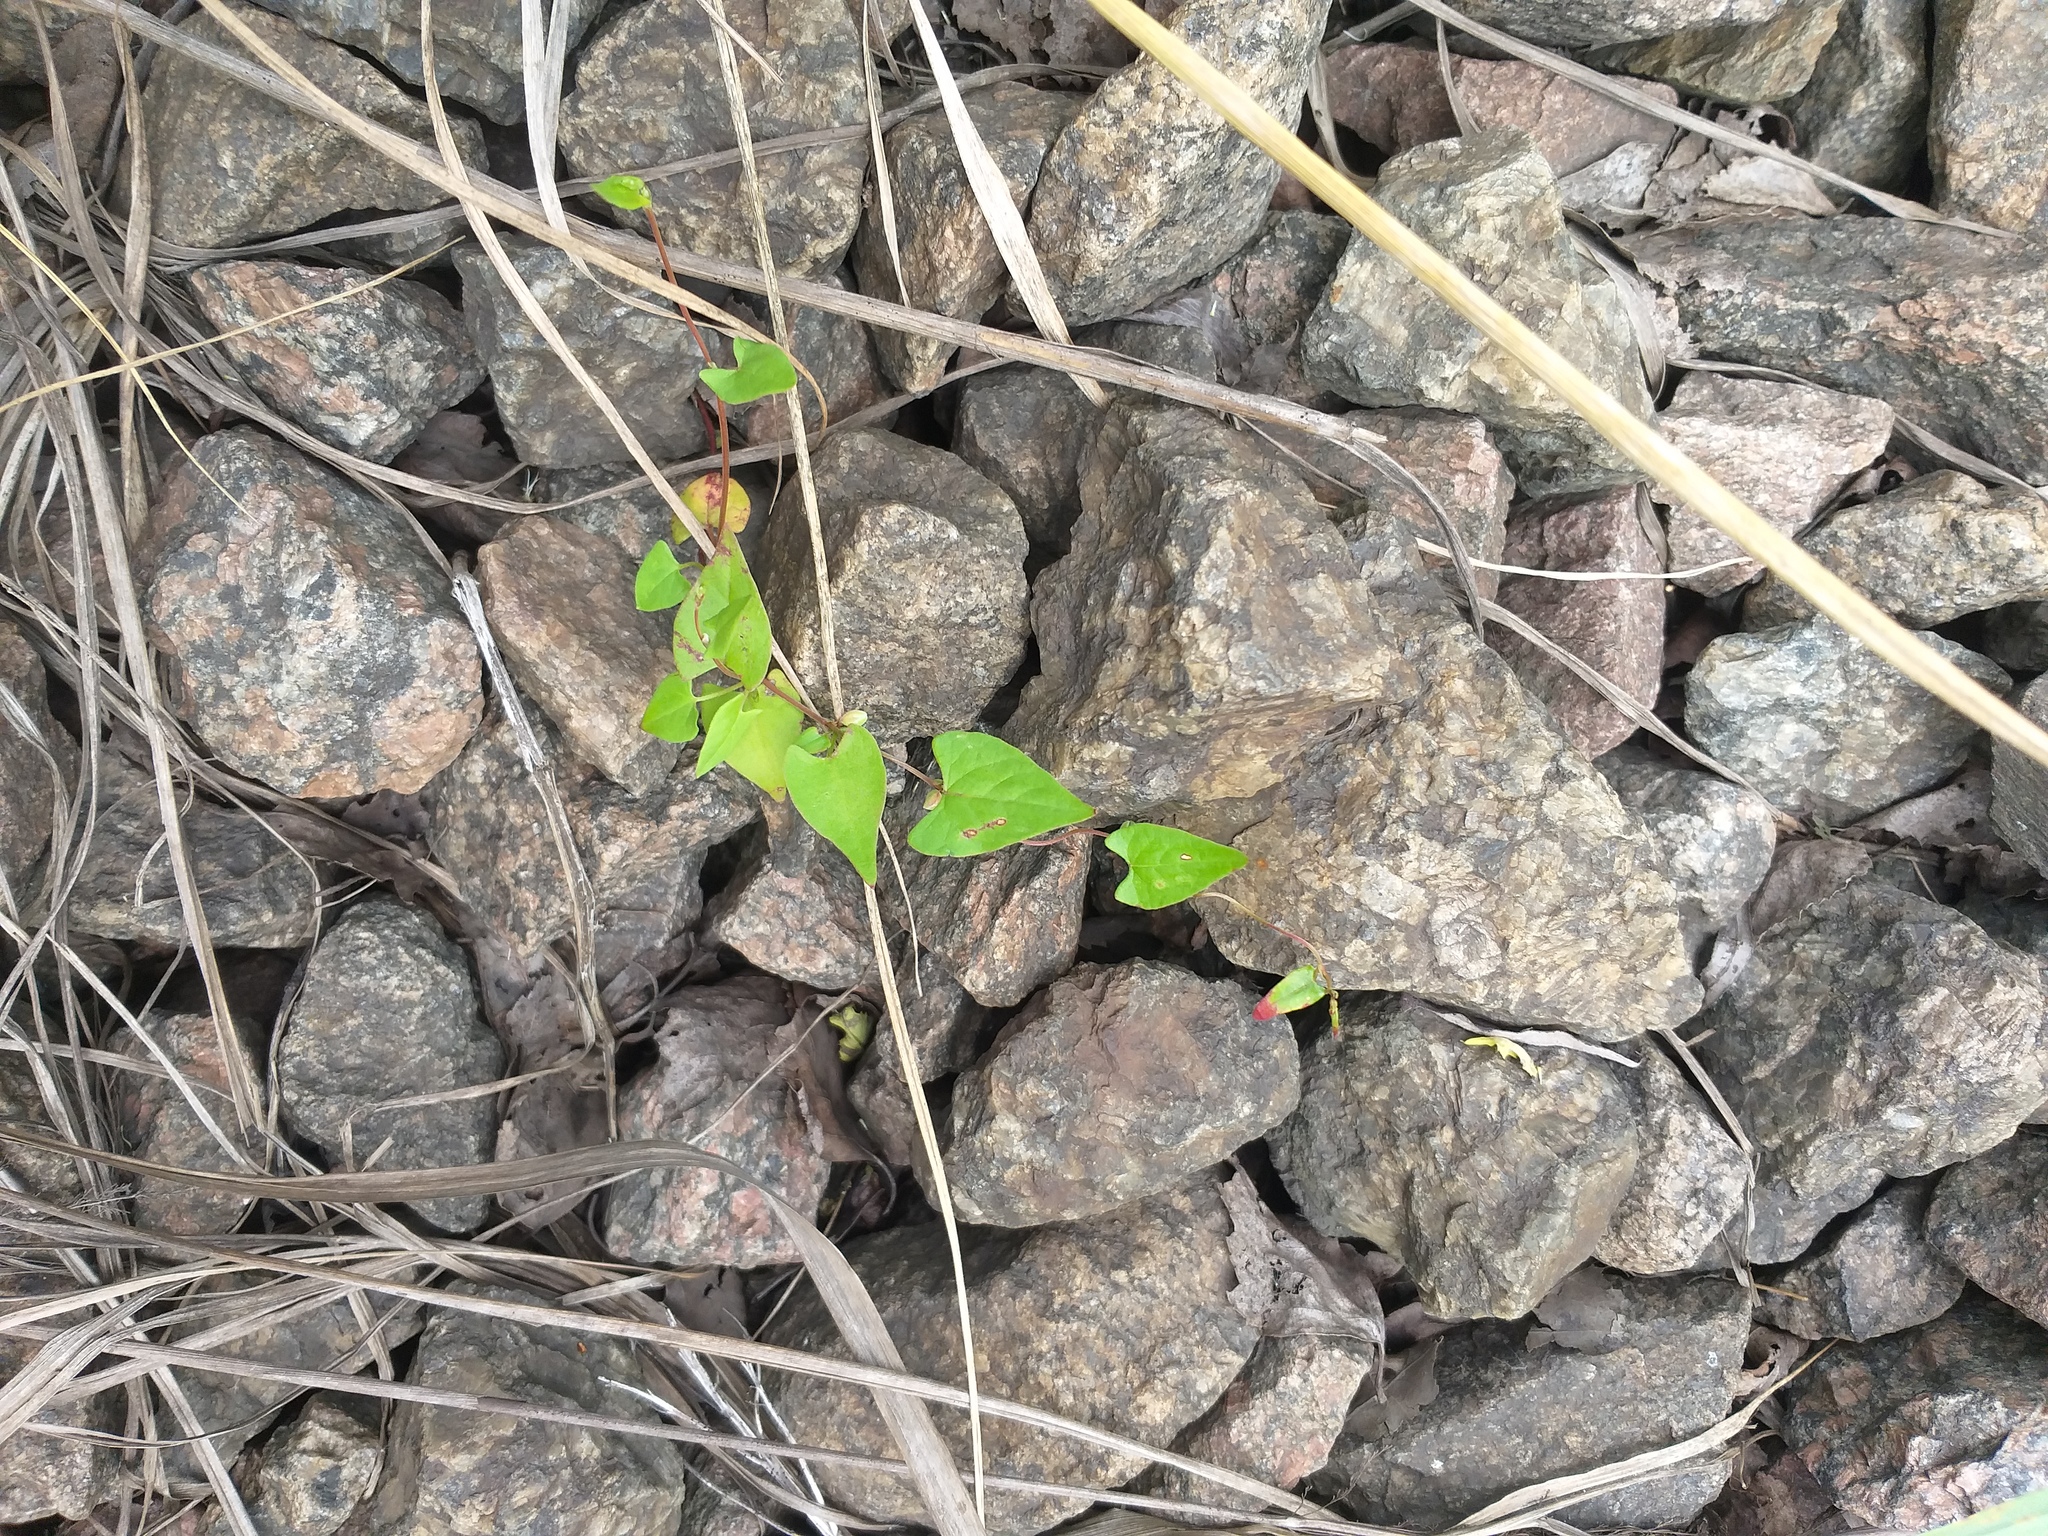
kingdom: Plantae
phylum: Tracheophyta
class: Magnoliopsida
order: Caryophyllales
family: Polygonaceae
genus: Fallopia
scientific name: Fallopia convolvulus
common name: Black bindweed
